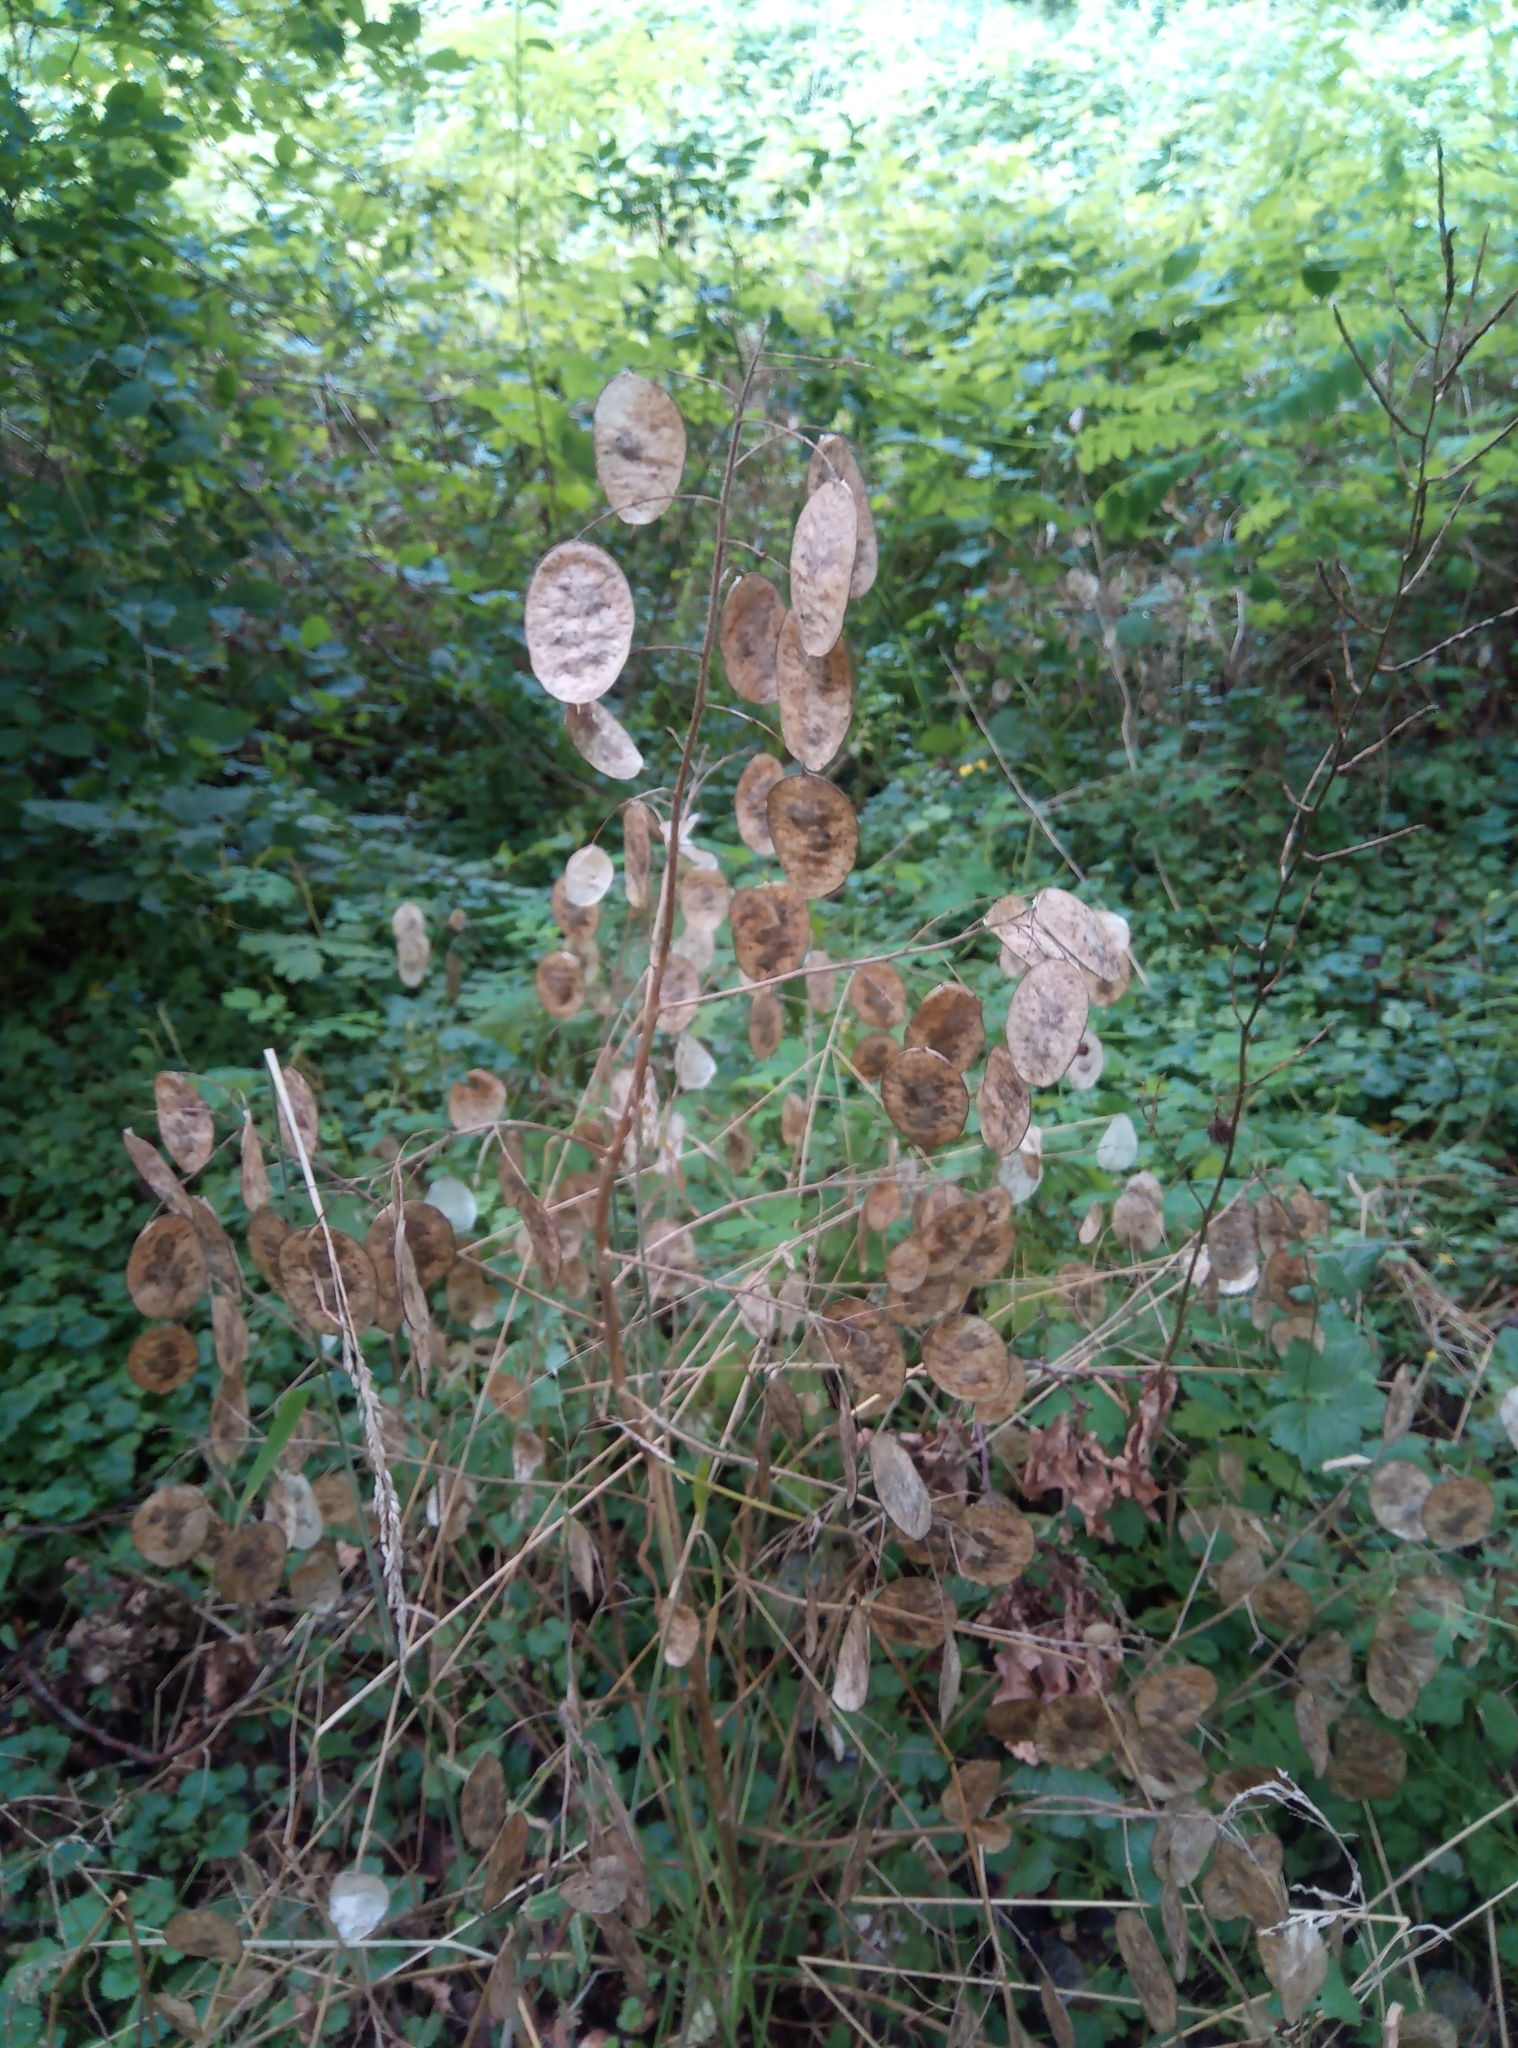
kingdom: Plantae
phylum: Tracheophyta
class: Magnoliopsida
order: Brassicales
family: Brassicaceae
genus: Lunaria
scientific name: Lunaria annua
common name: Honesty
